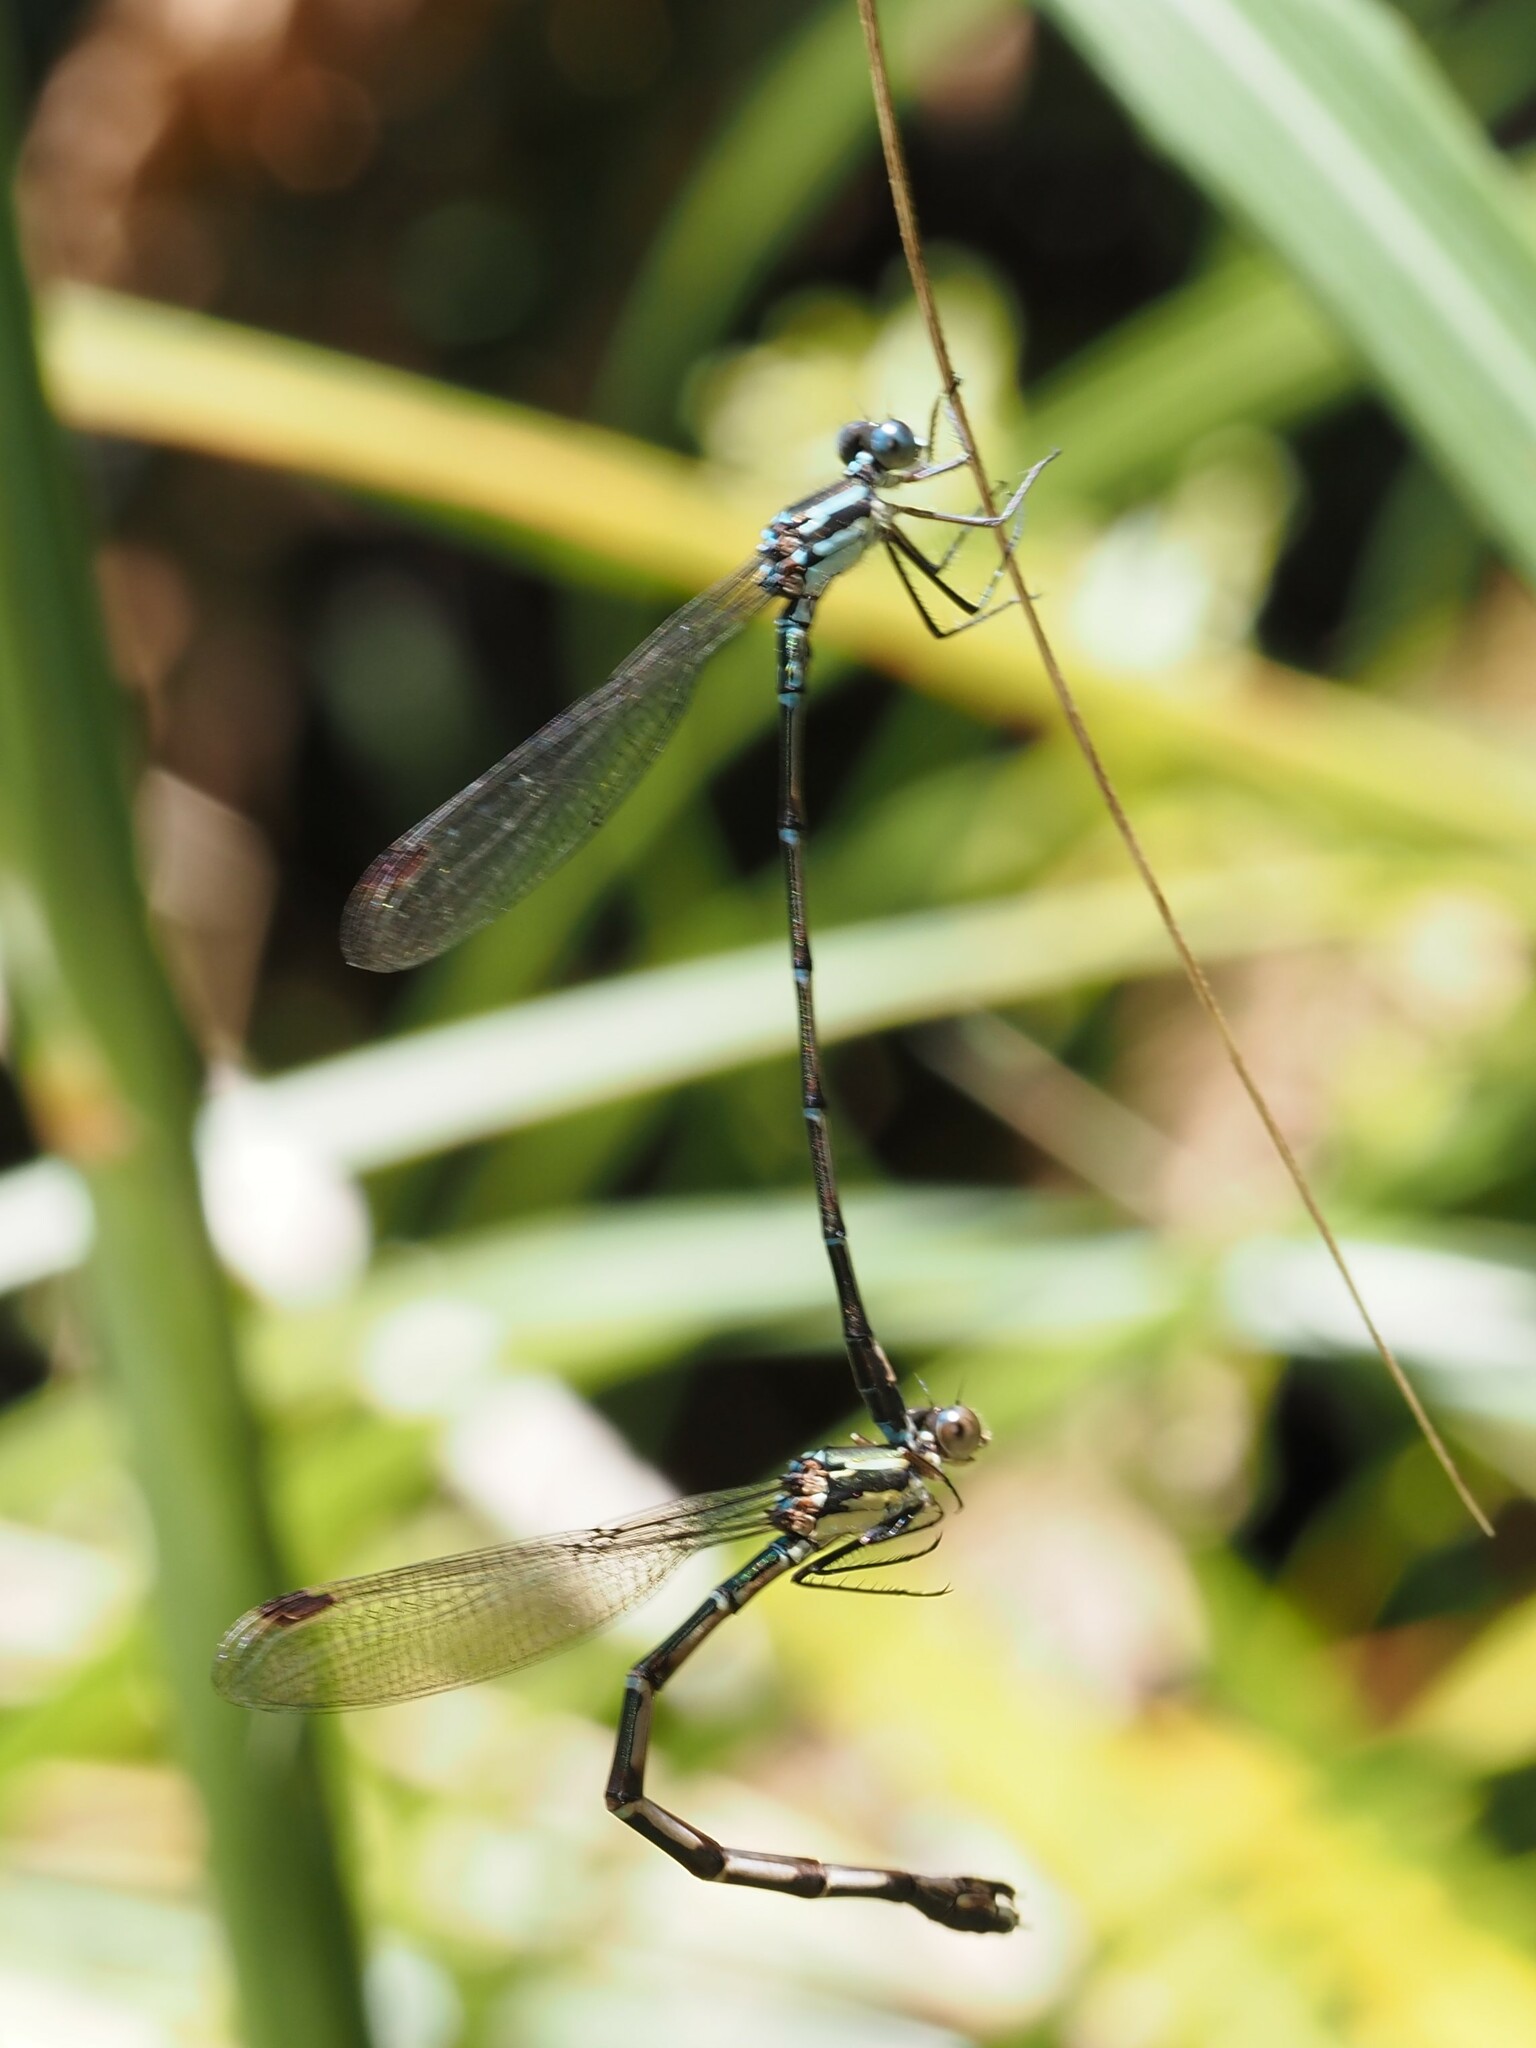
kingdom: Animalia
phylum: Arthropoda
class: Insecta
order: Odonata
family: Lestidae
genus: Austrolestes
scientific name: Austrolestes colensonis
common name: Blue damselfly
